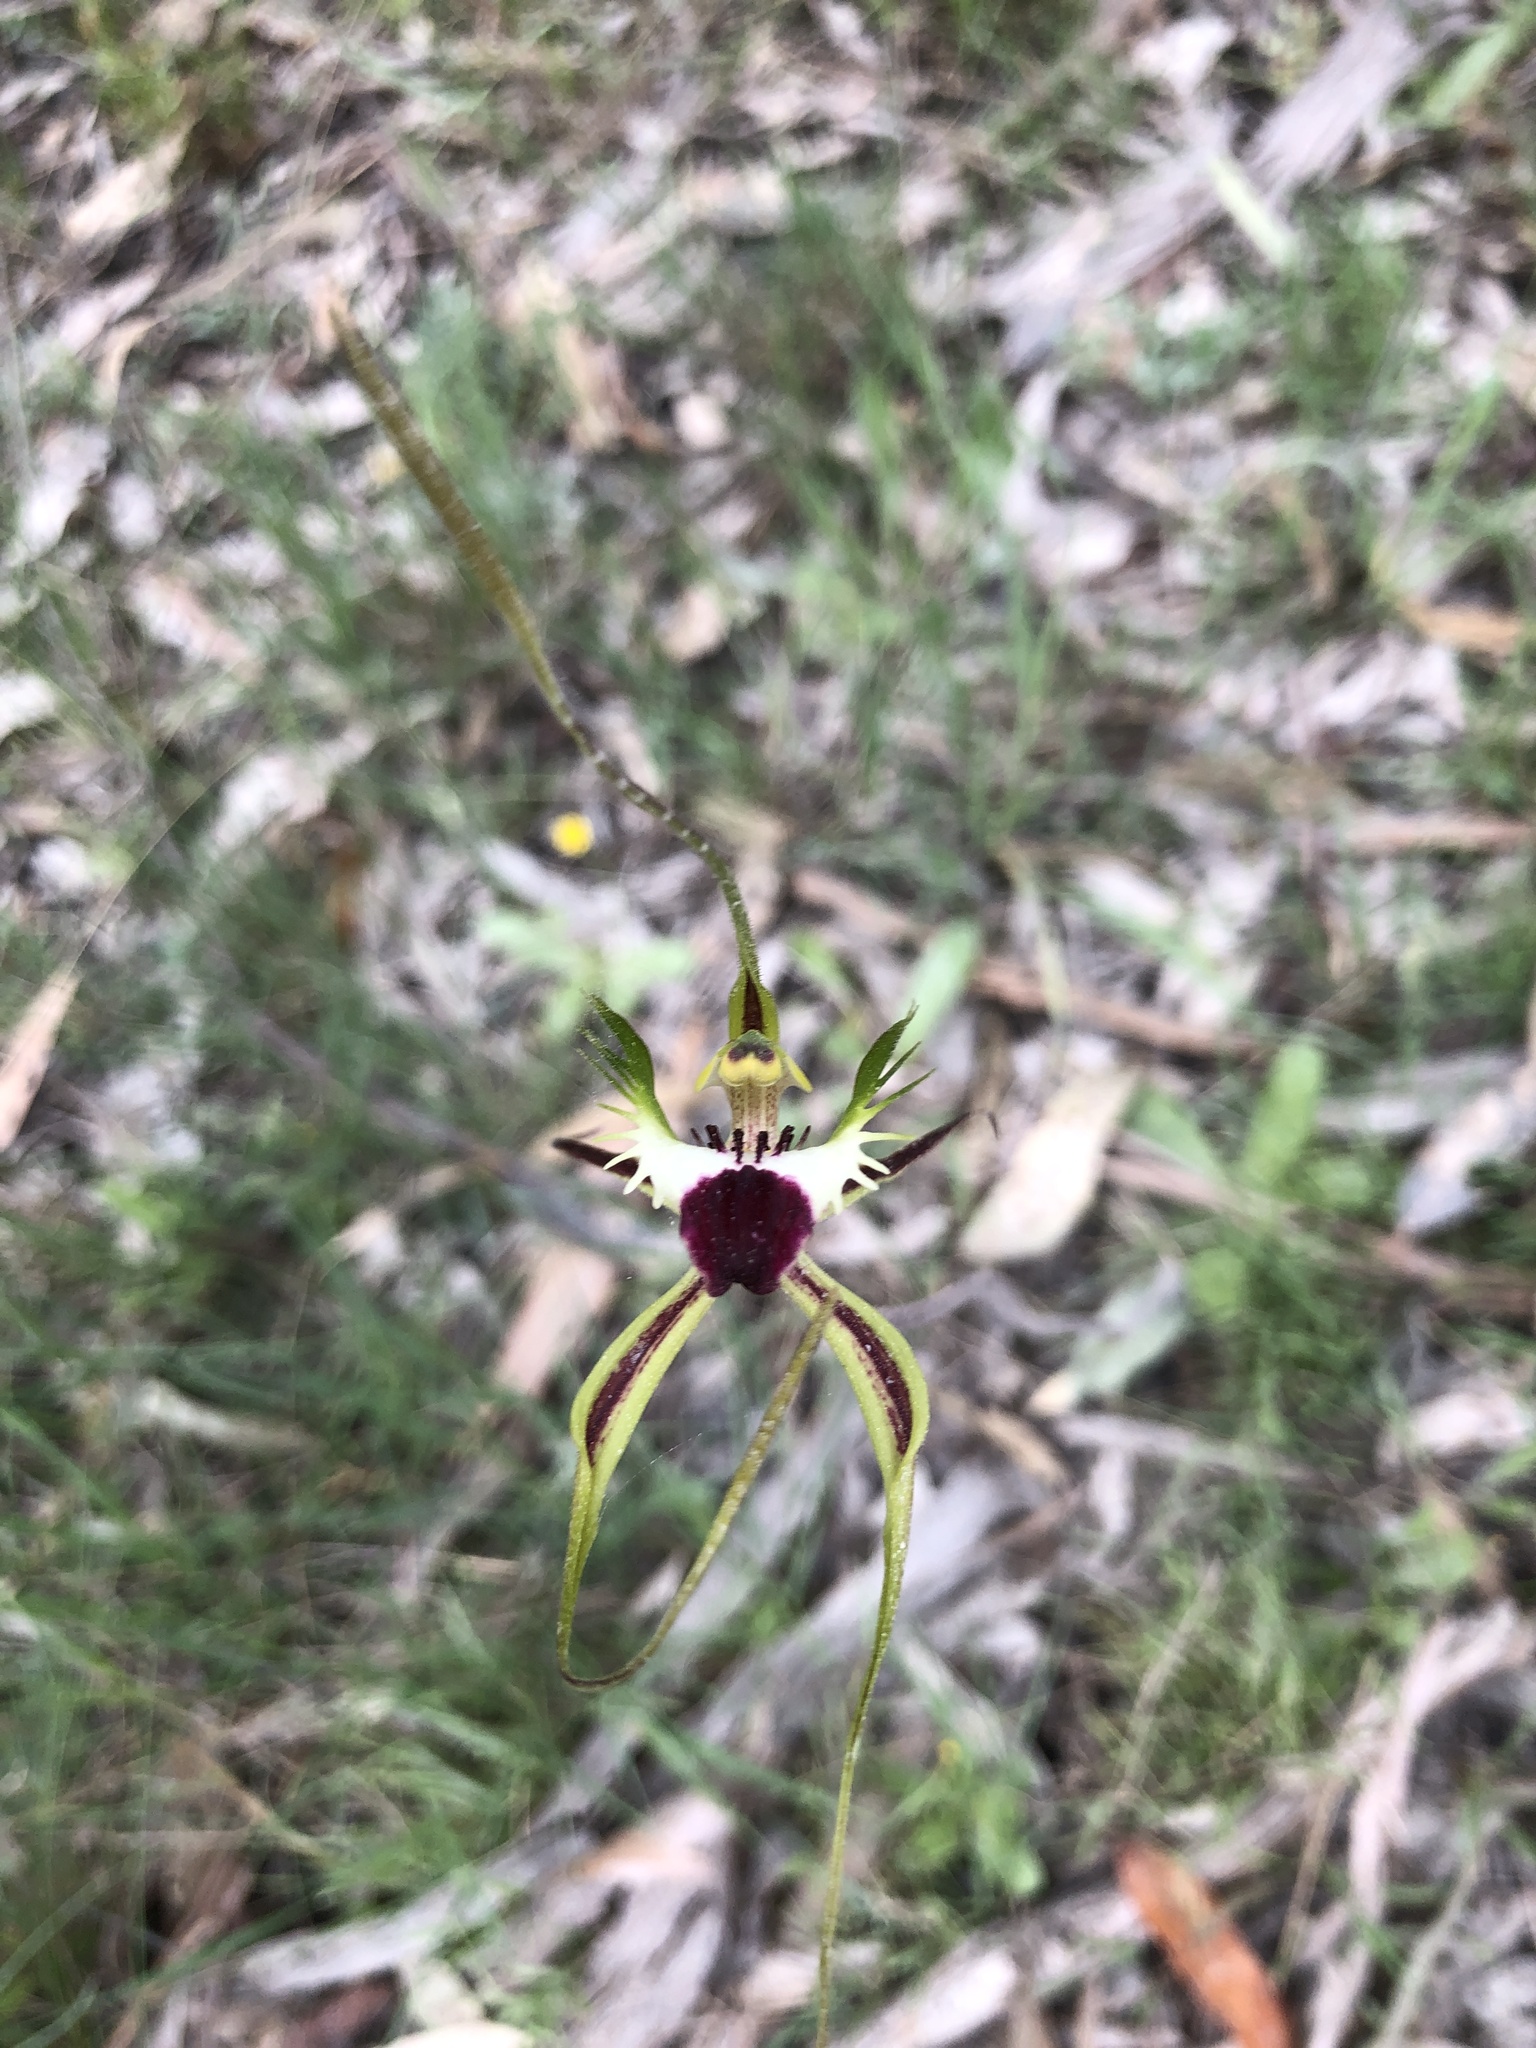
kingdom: Plantae
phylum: Tracheophyta
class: Liliopsida
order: Asparagales
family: Orchidaceae
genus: Caladenia
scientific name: Caladenia tentaculata
